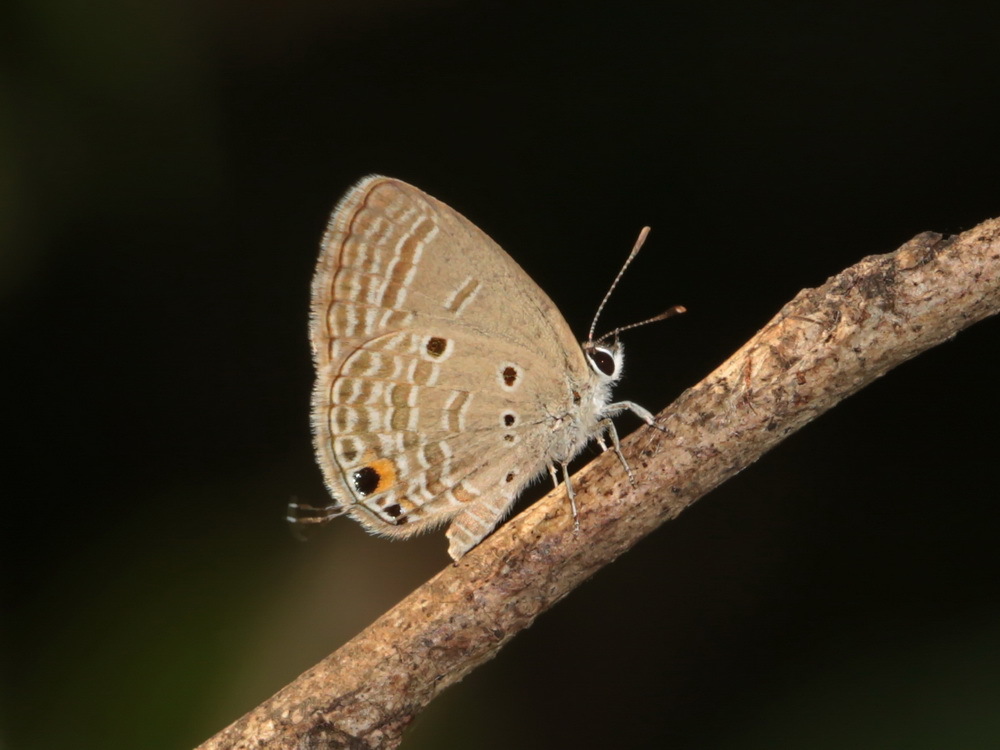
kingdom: Animalia
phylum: Arthropoda
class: Insecta
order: Lepidoptera
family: Lycaenidae
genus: Luthrodes
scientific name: Luthrodes pandava
